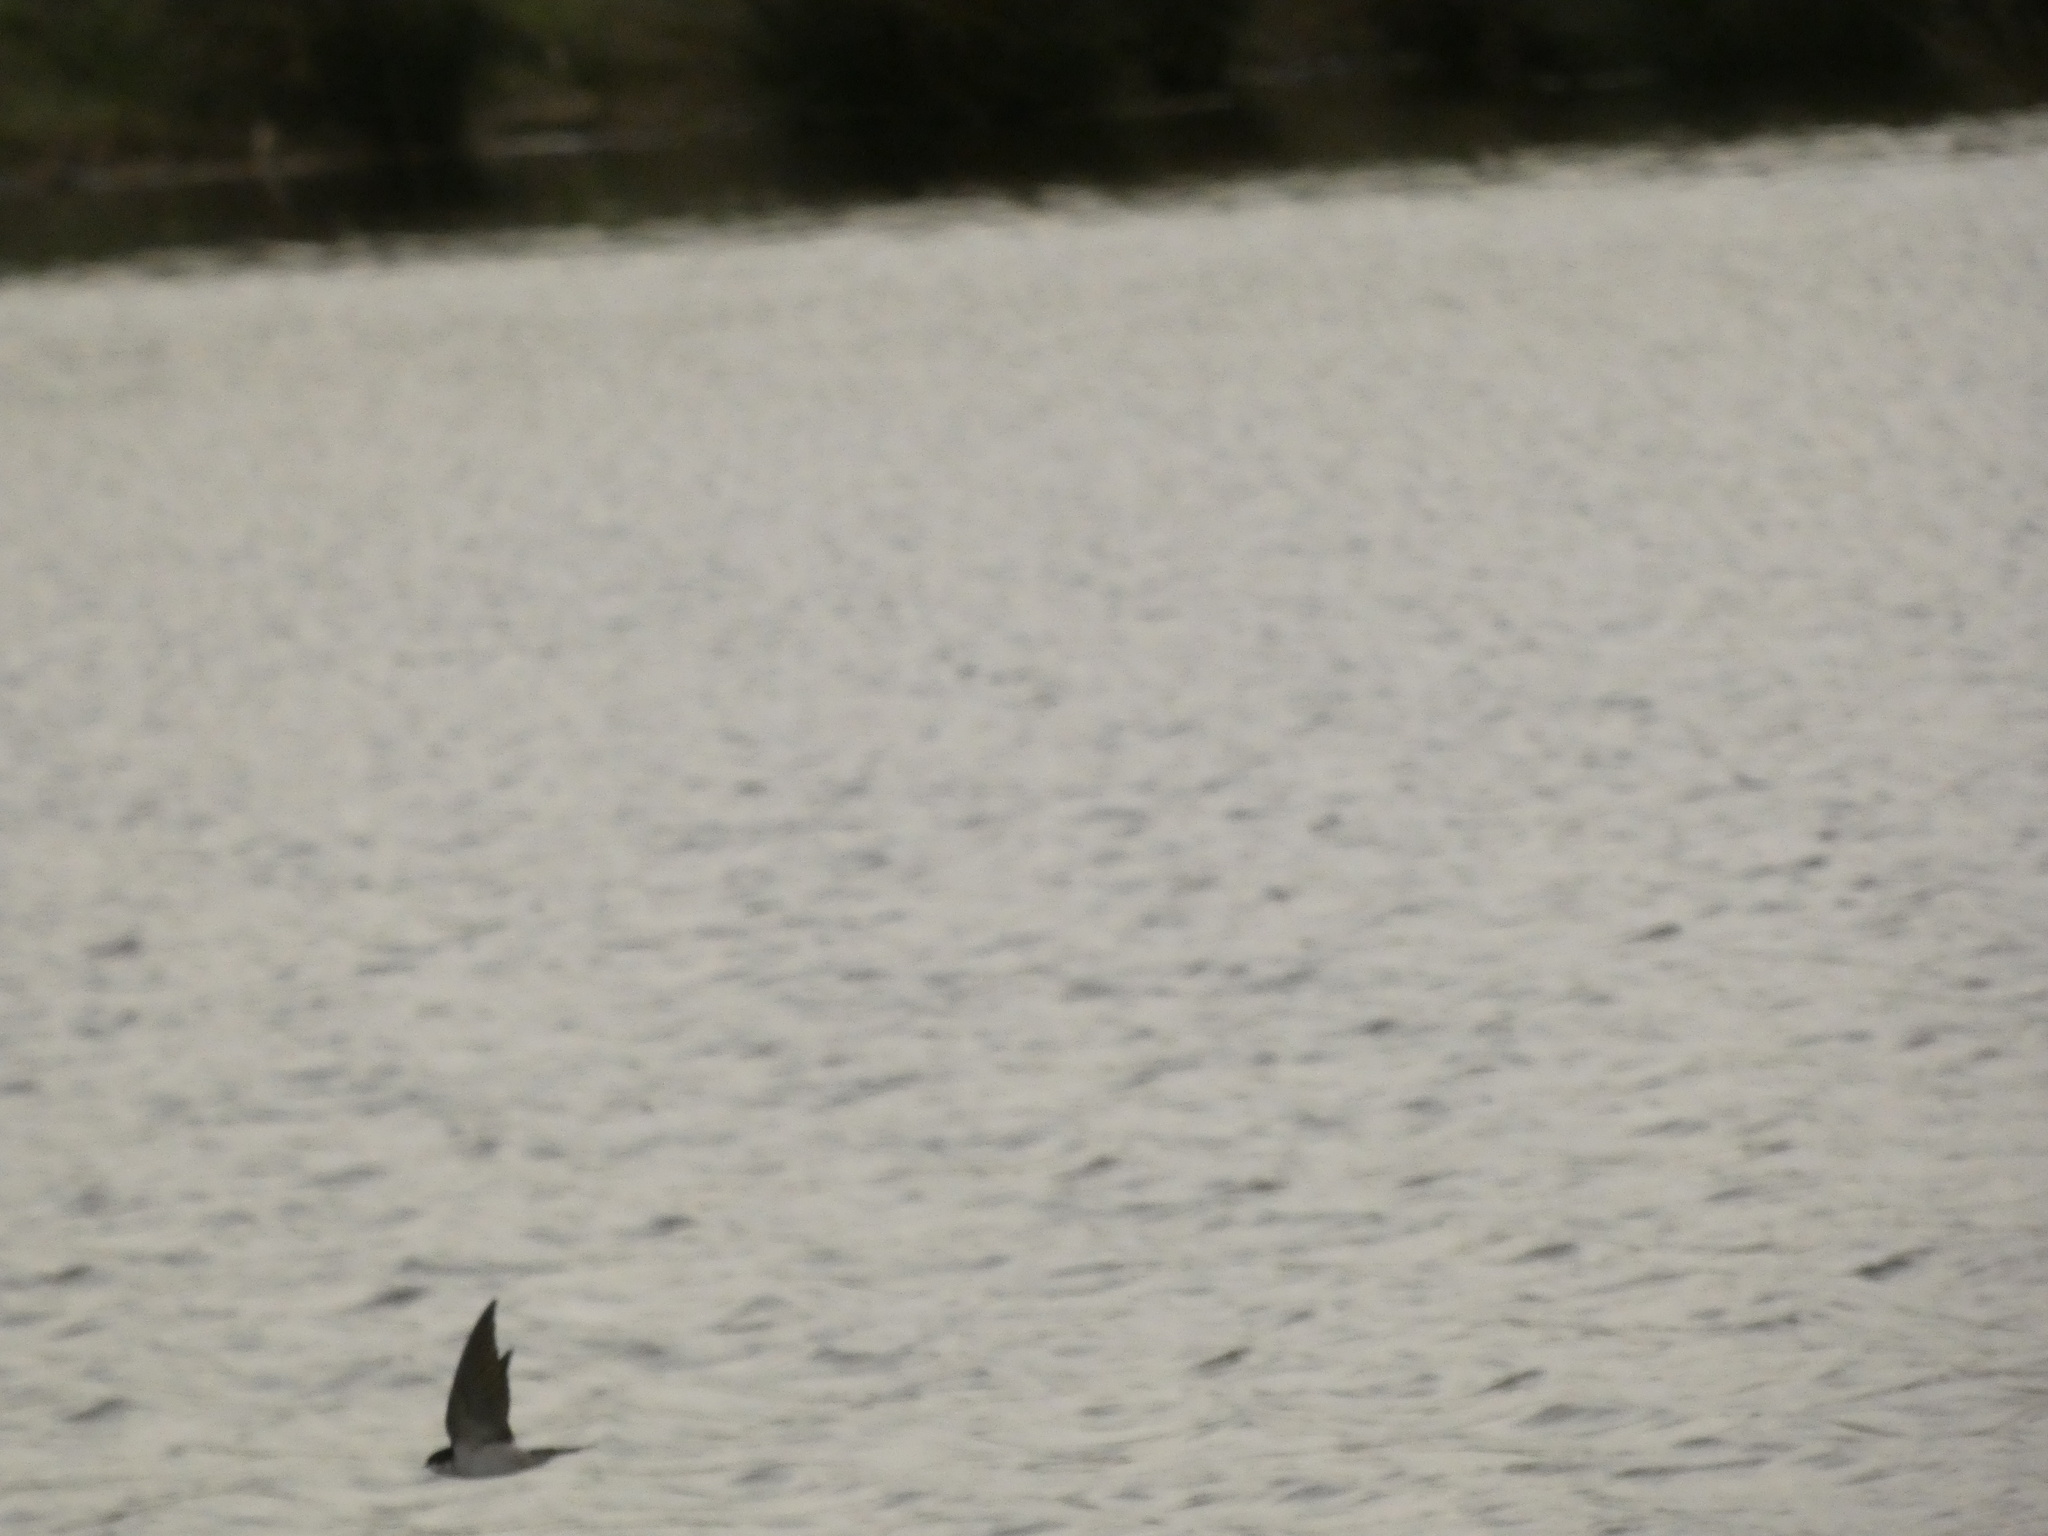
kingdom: Animalia
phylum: Chordata
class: Aves
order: Passeriformes
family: Hirundinidae
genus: Delichon
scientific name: Delichon urbicum
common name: Common house martin
